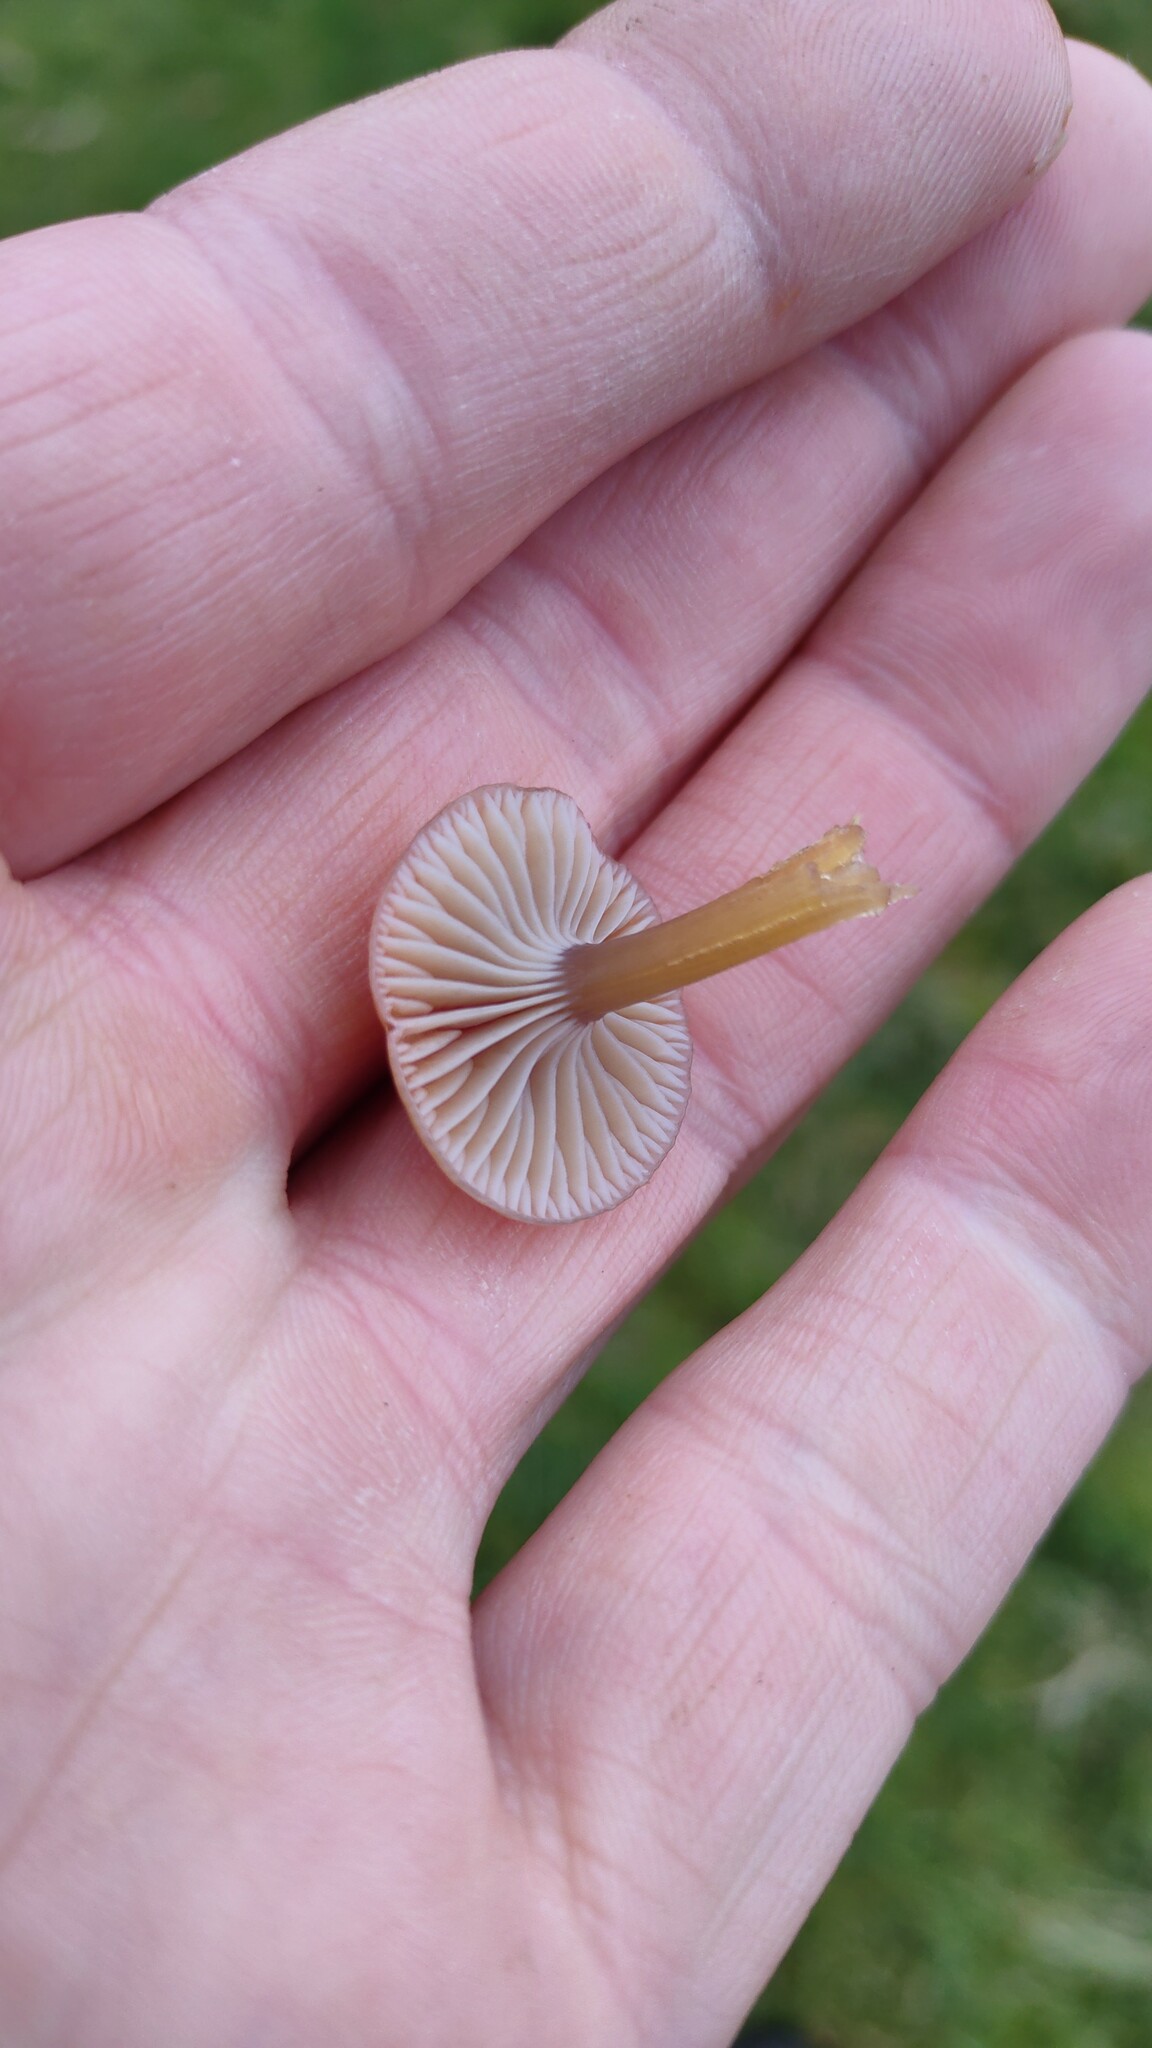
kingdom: Fungi
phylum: Basidiomycota
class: Agaricomycetes
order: Agaricales
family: Hygrophoraceae
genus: Gliophorus
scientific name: Gliophorus laetus
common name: Heath waxcap
